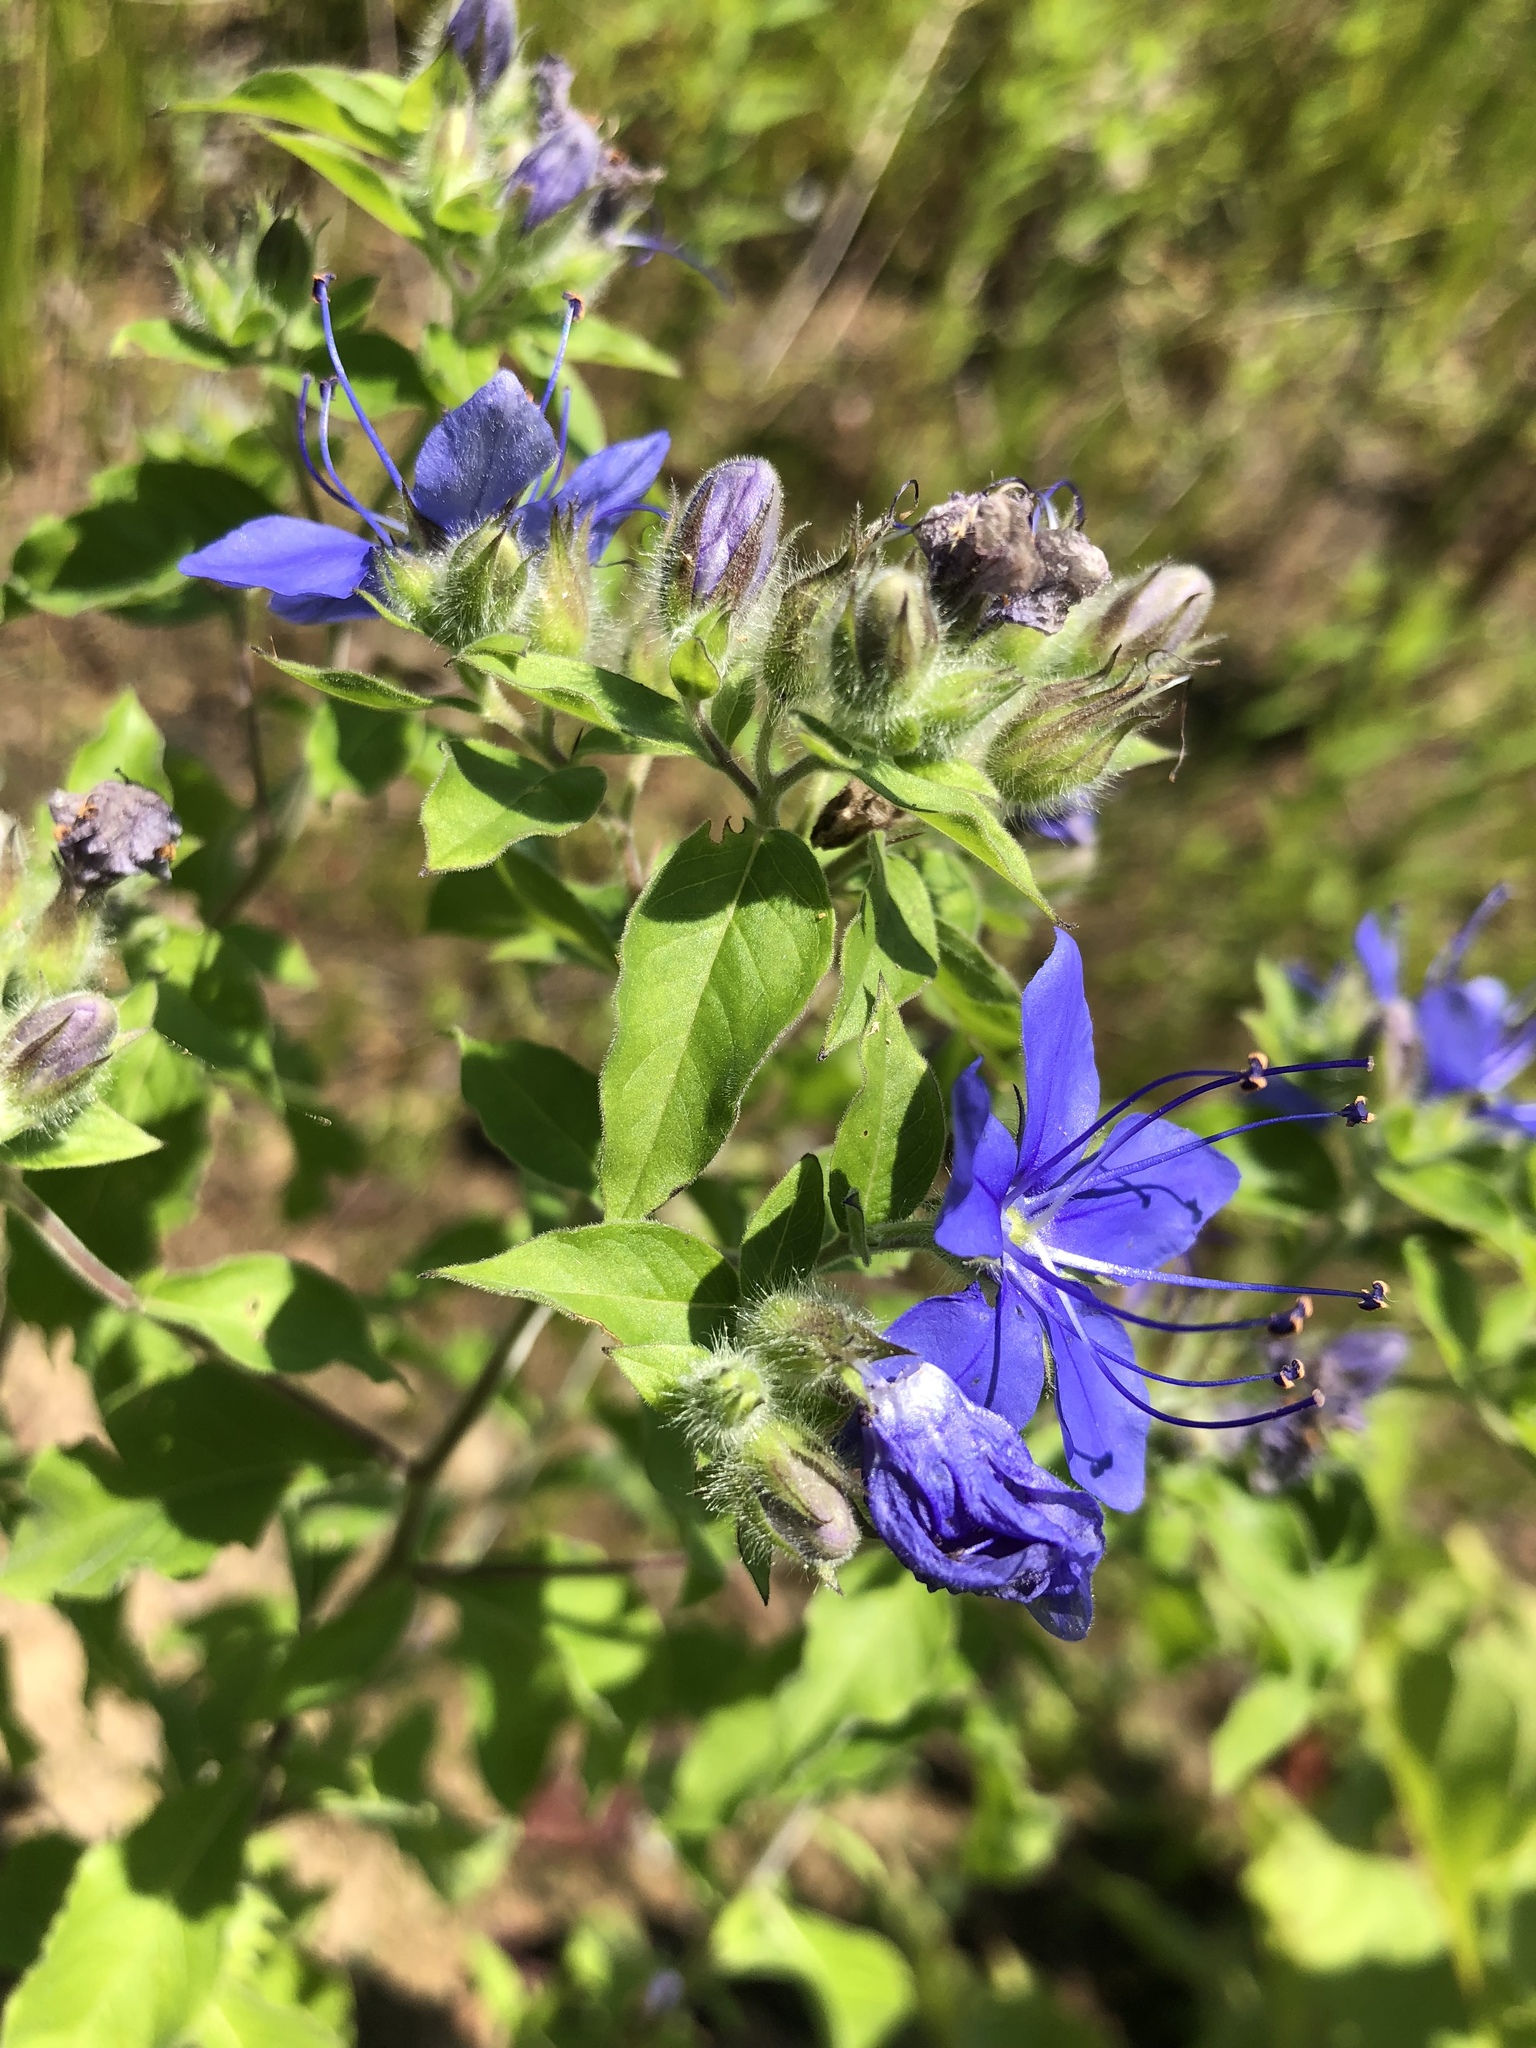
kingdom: Plantae
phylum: Tracheophyta
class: Magnoliopsida
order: Solanales
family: Hydroleaceae
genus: Hydrolea
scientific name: Hydrolea ovata
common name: Ovate false fiddleleaf
